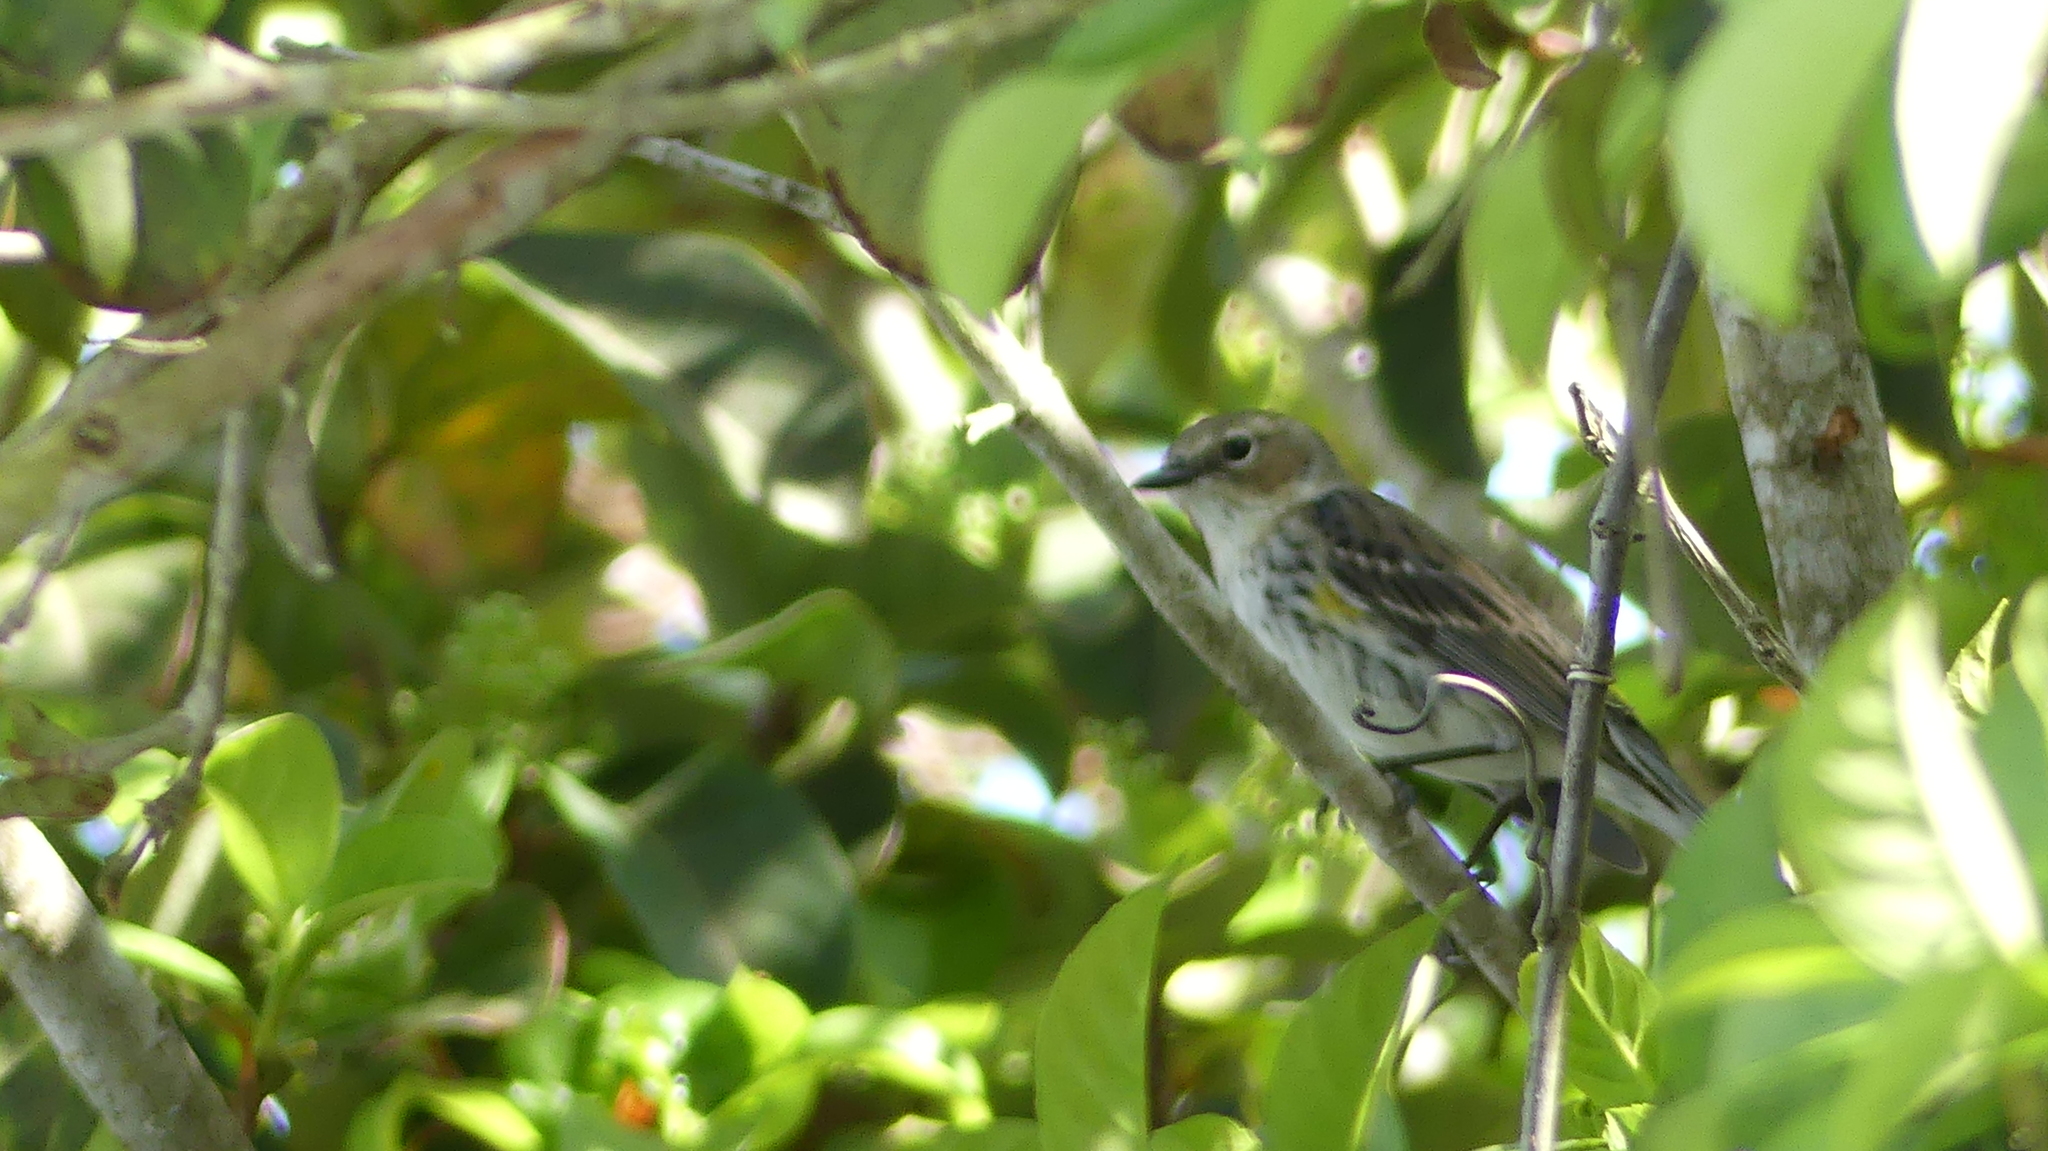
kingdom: Animalia
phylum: Chordata
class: Aves
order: Passeriformes
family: Parulidae
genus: Setophaga
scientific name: Setophaga coronata
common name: Myrtle warbler
